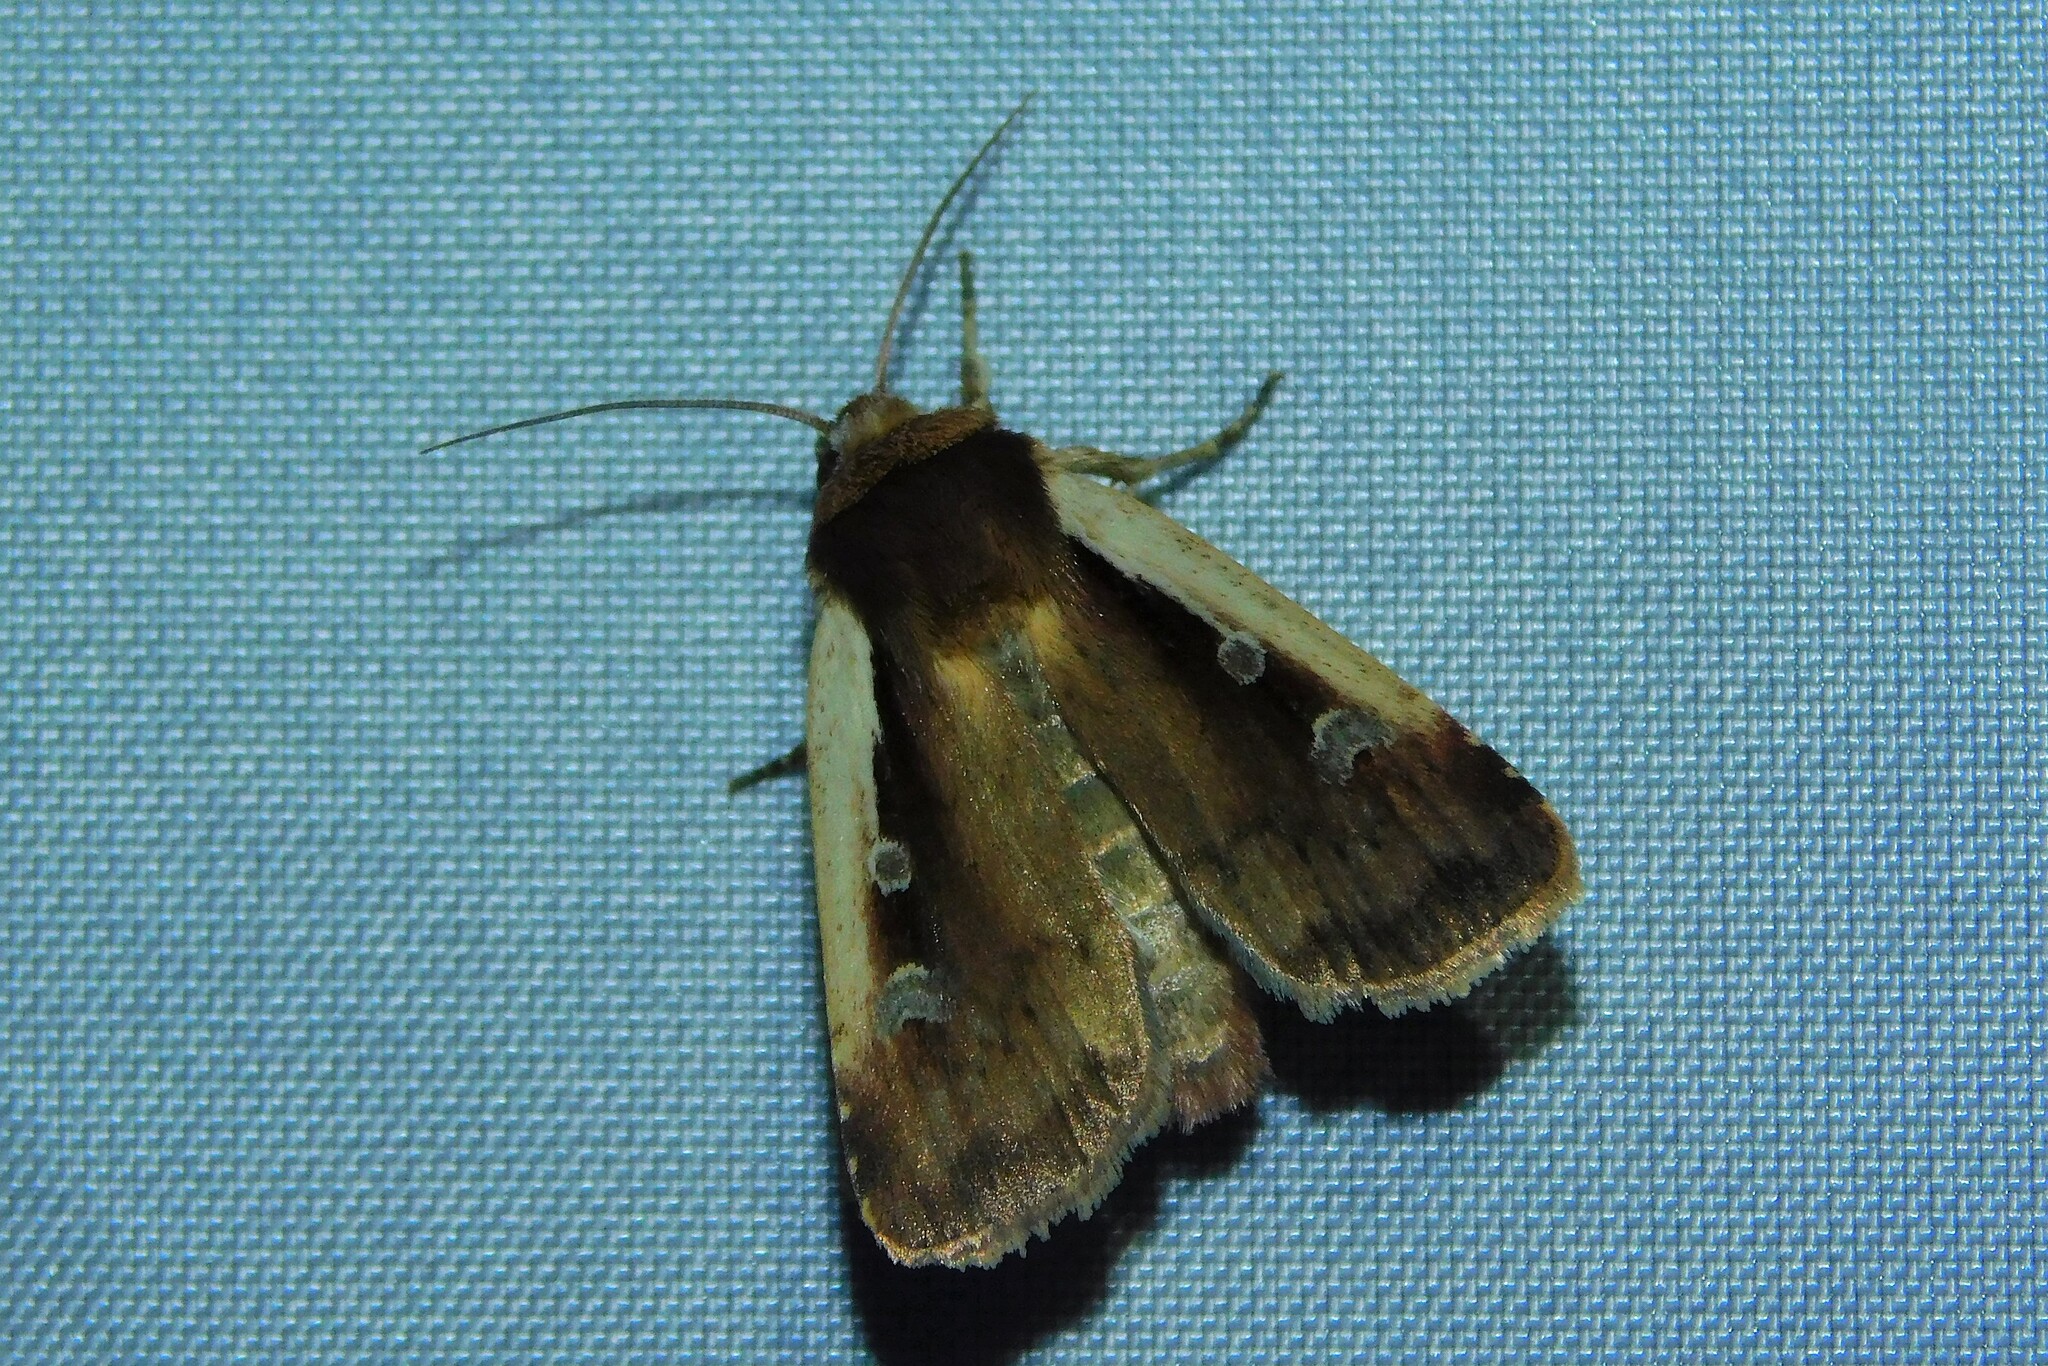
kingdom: Animalia
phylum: Arthropoda
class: Insecta
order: Lepidoptera
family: Noctuidae
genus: Ochropleura
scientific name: Ochropleura plecta
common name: Flame shoulder
